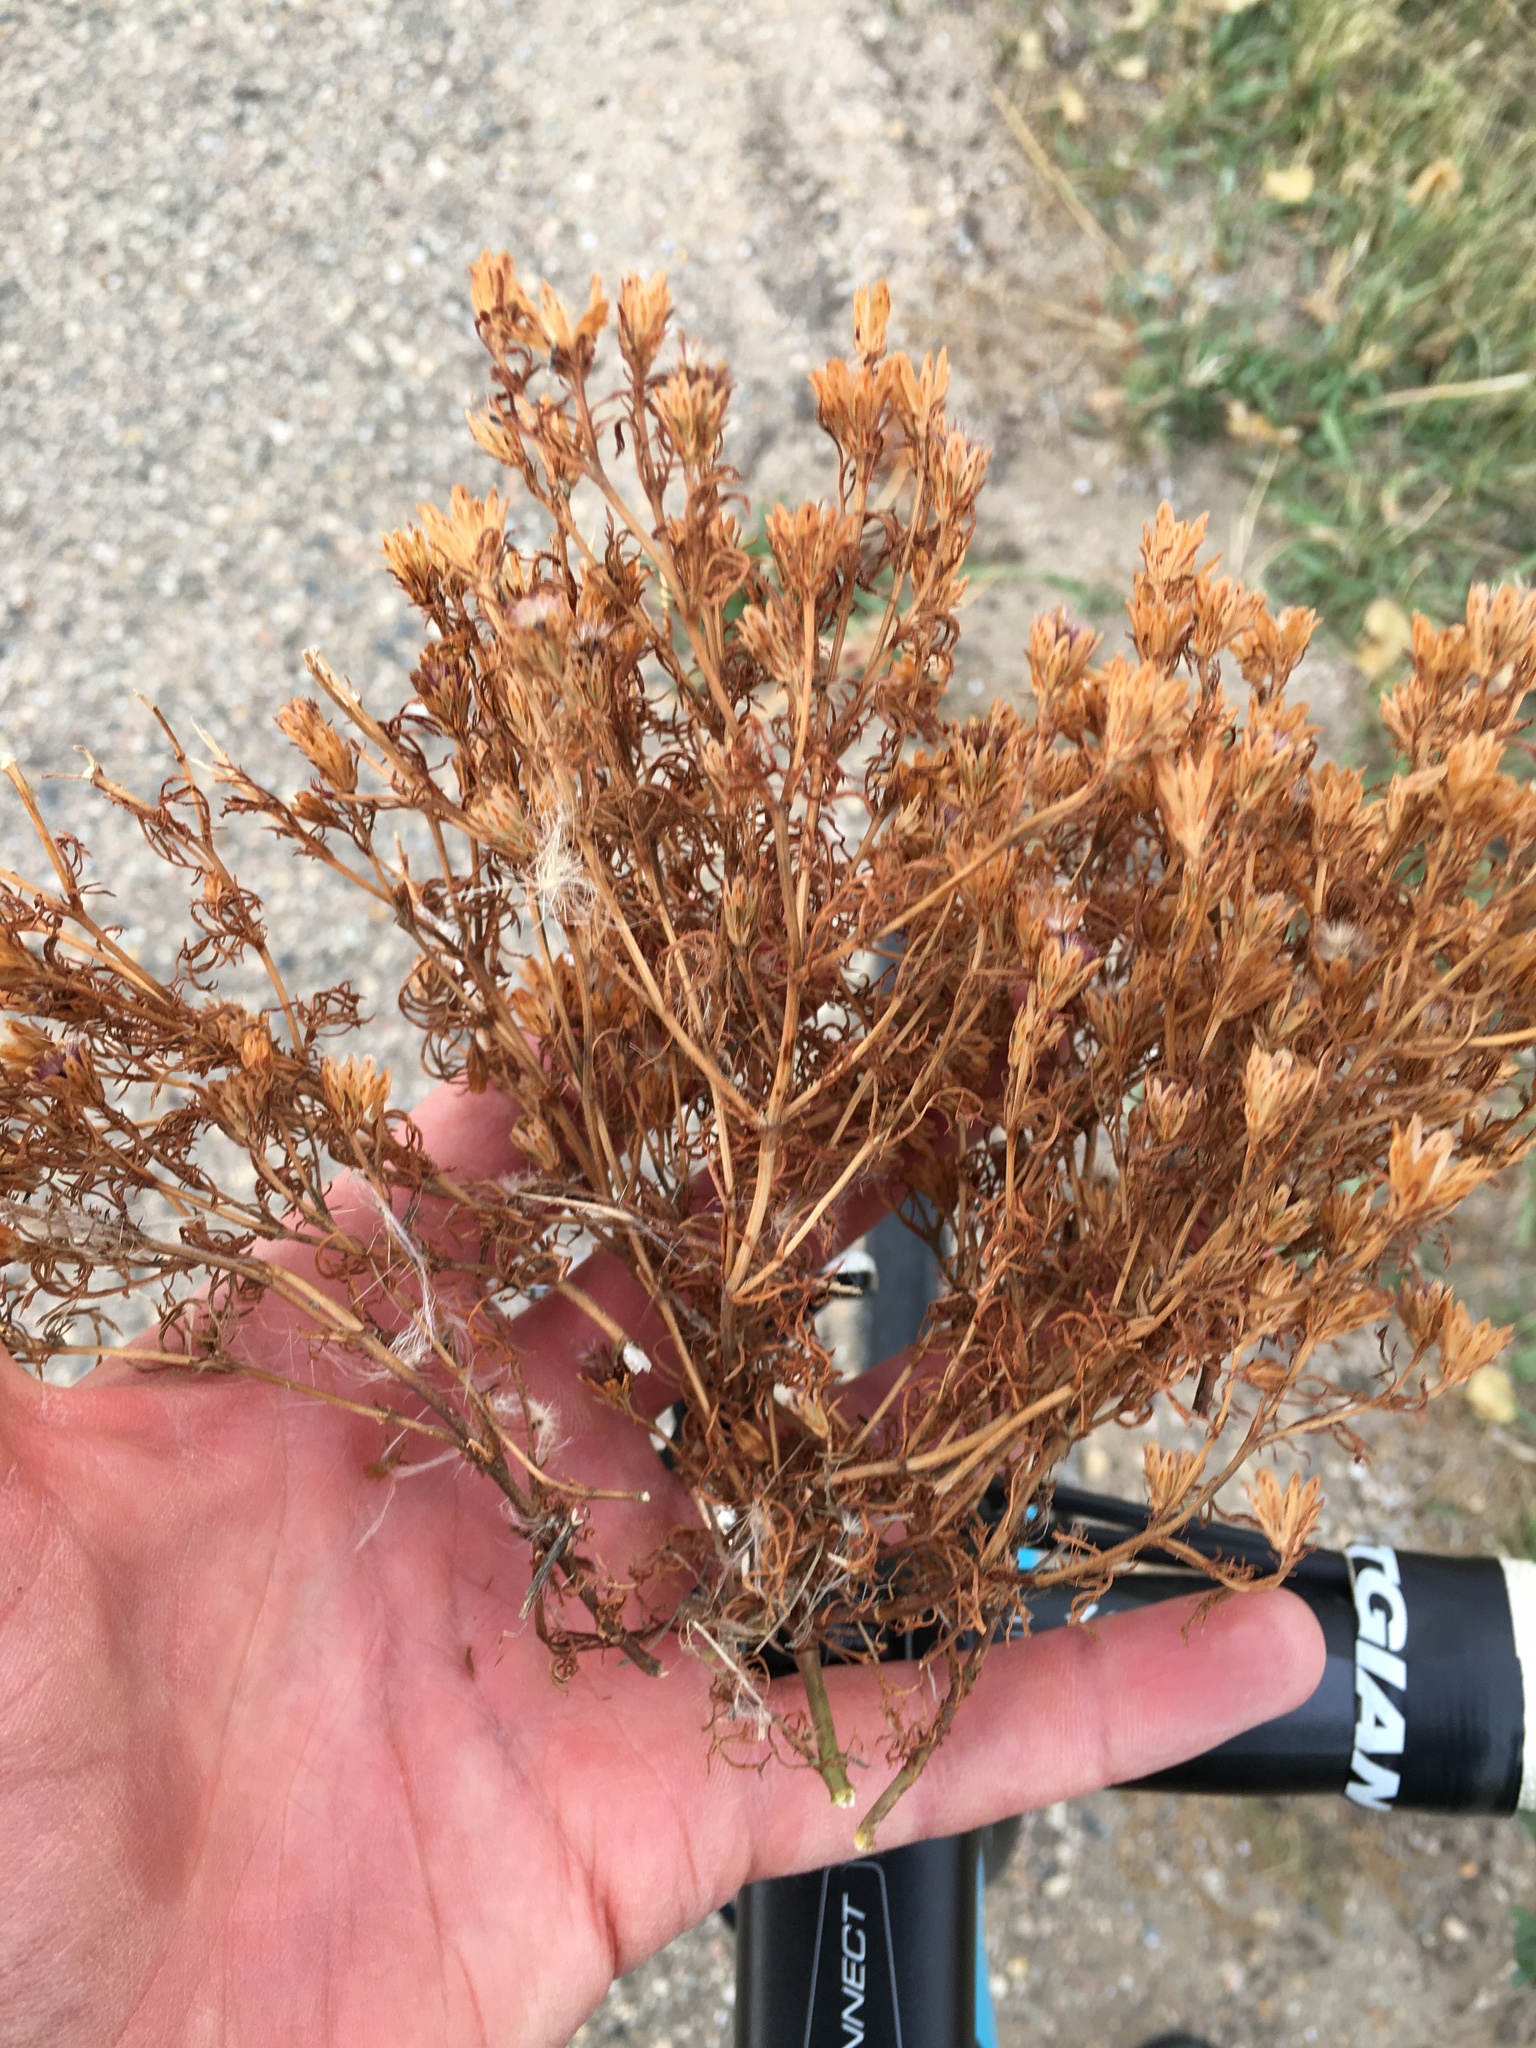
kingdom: Plantae
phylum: Tracheophyta
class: Magnoliopsida
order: Asterales
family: Asteraceae
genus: Dyssodia
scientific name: Dyssodia papposa
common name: Dogweed
